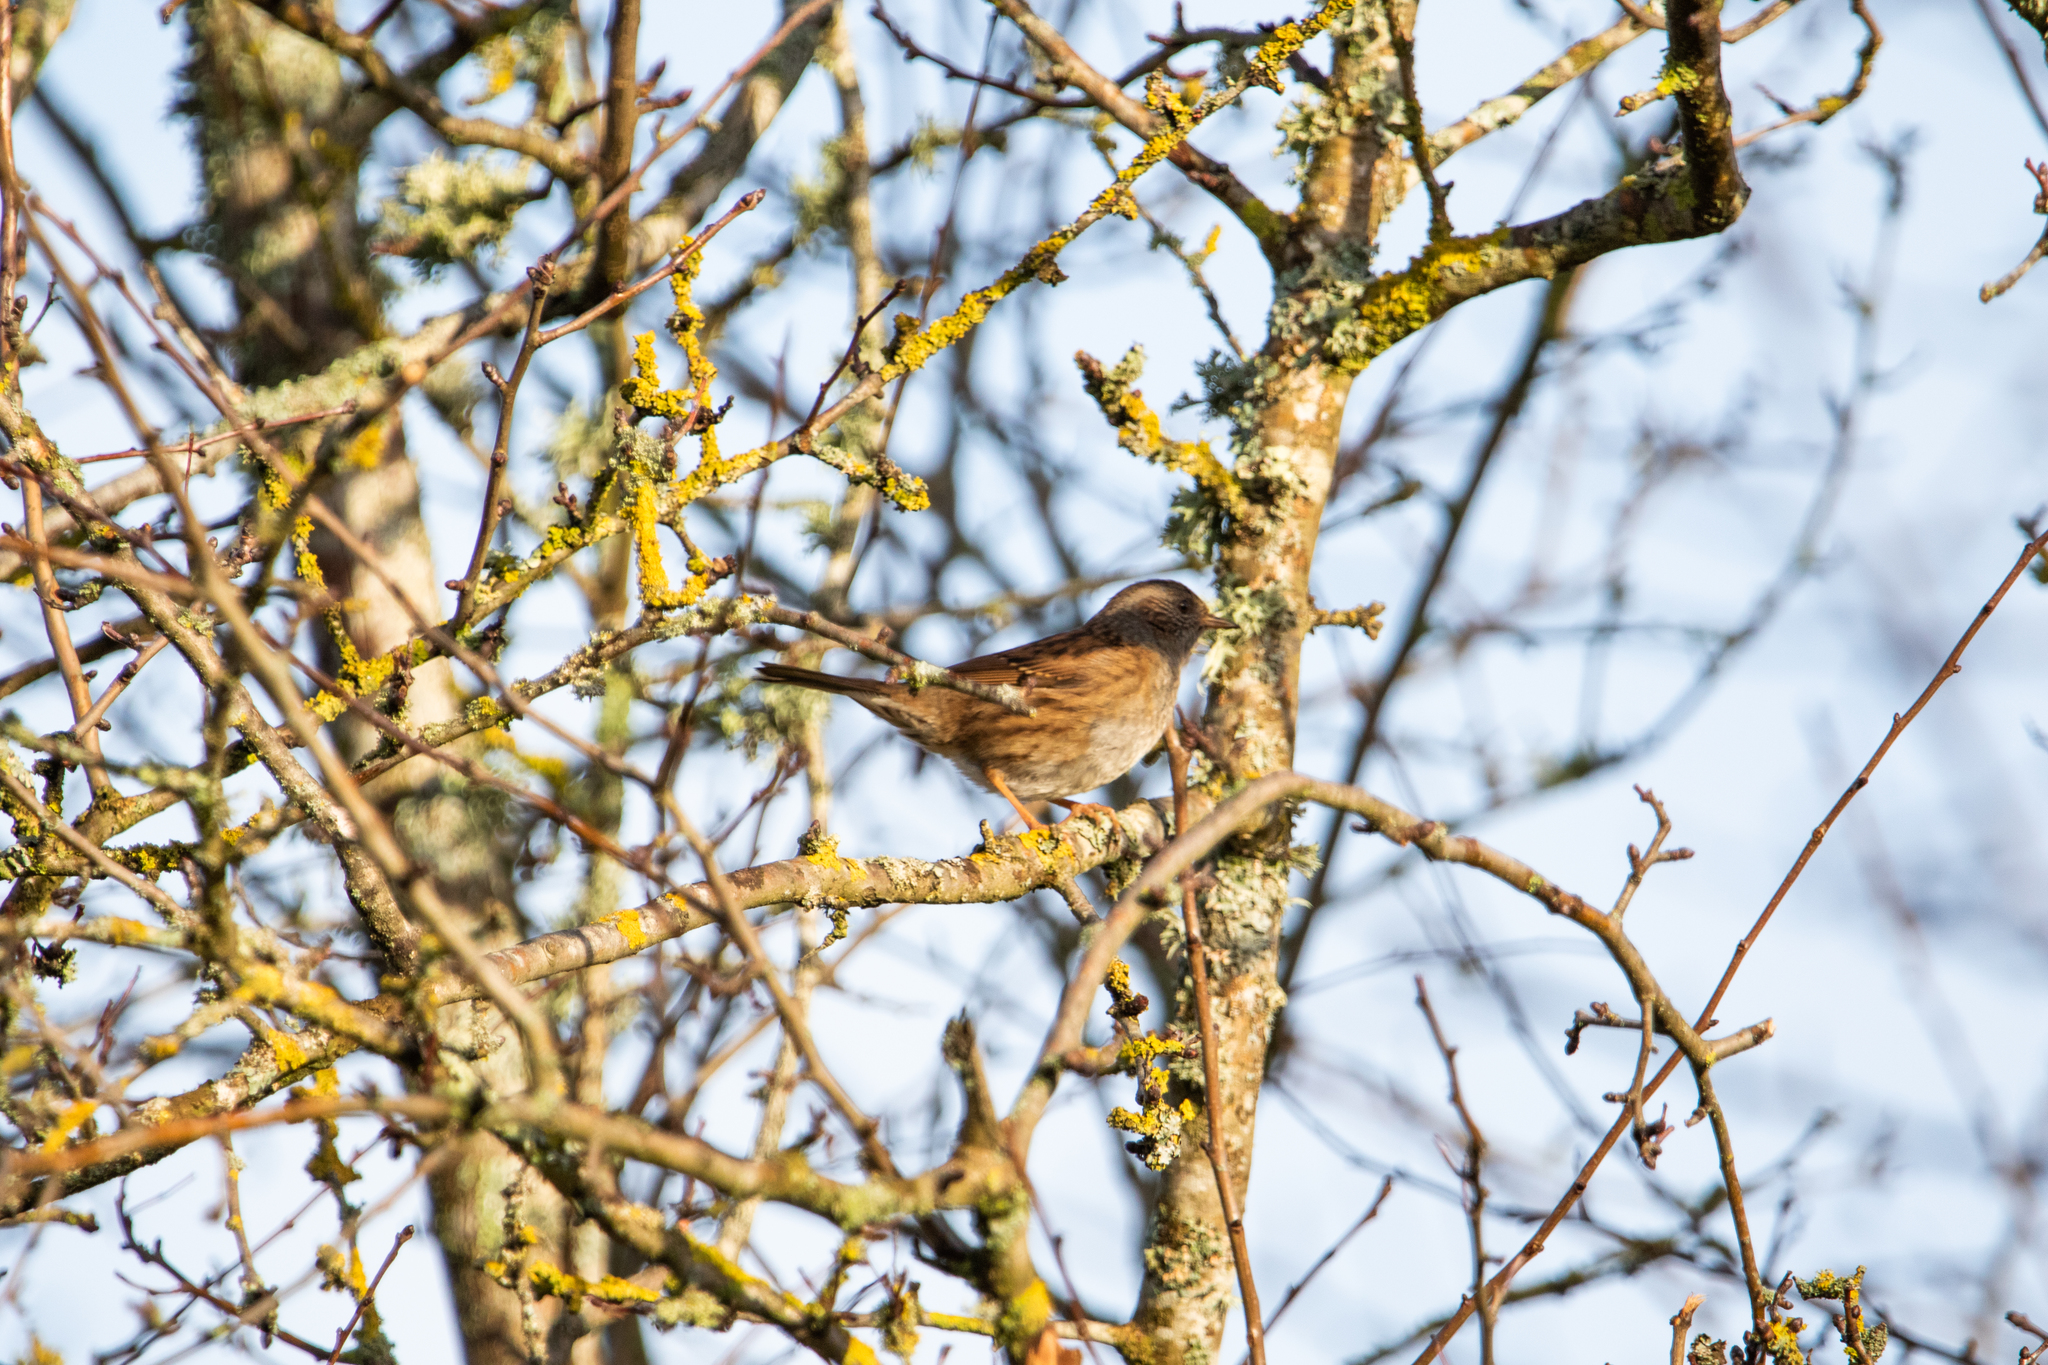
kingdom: Animalia
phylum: Chordata
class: Aves
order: Passeriformes
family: Prunellidae
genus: Prunella
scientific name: Prunella modularis
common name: Dunnock
